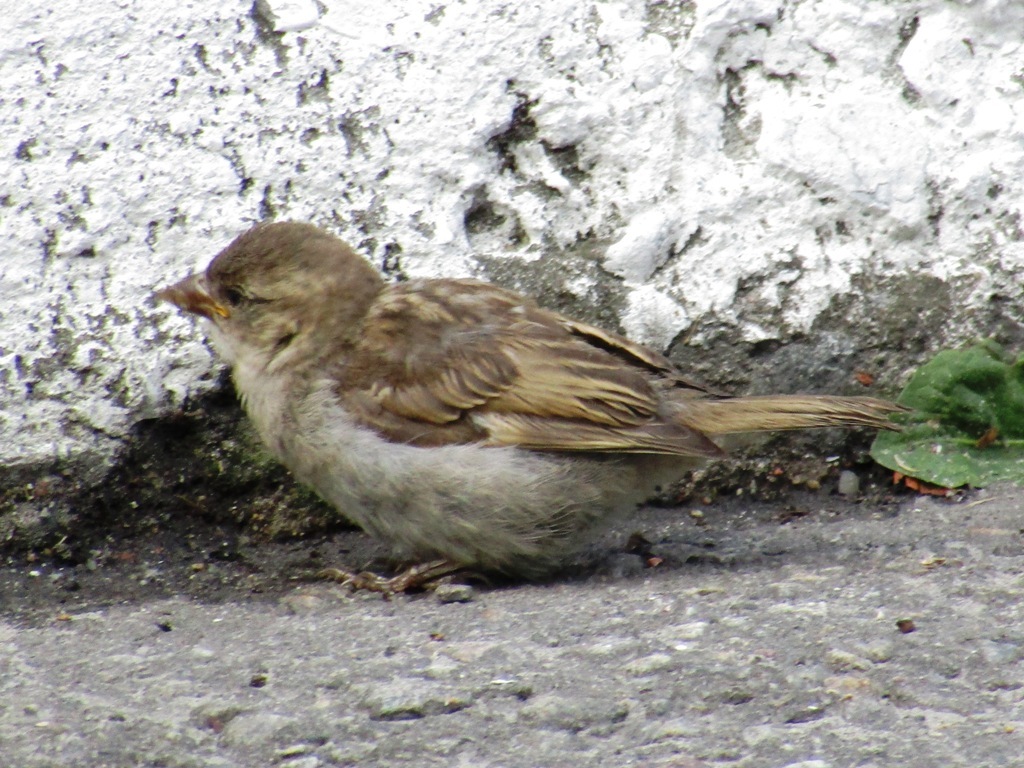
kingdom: Animalia
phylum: Chordata
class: Aves
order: Passeriformes
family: Passeridae
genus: Passer
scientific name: Passer domesticus
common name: House sparrow
